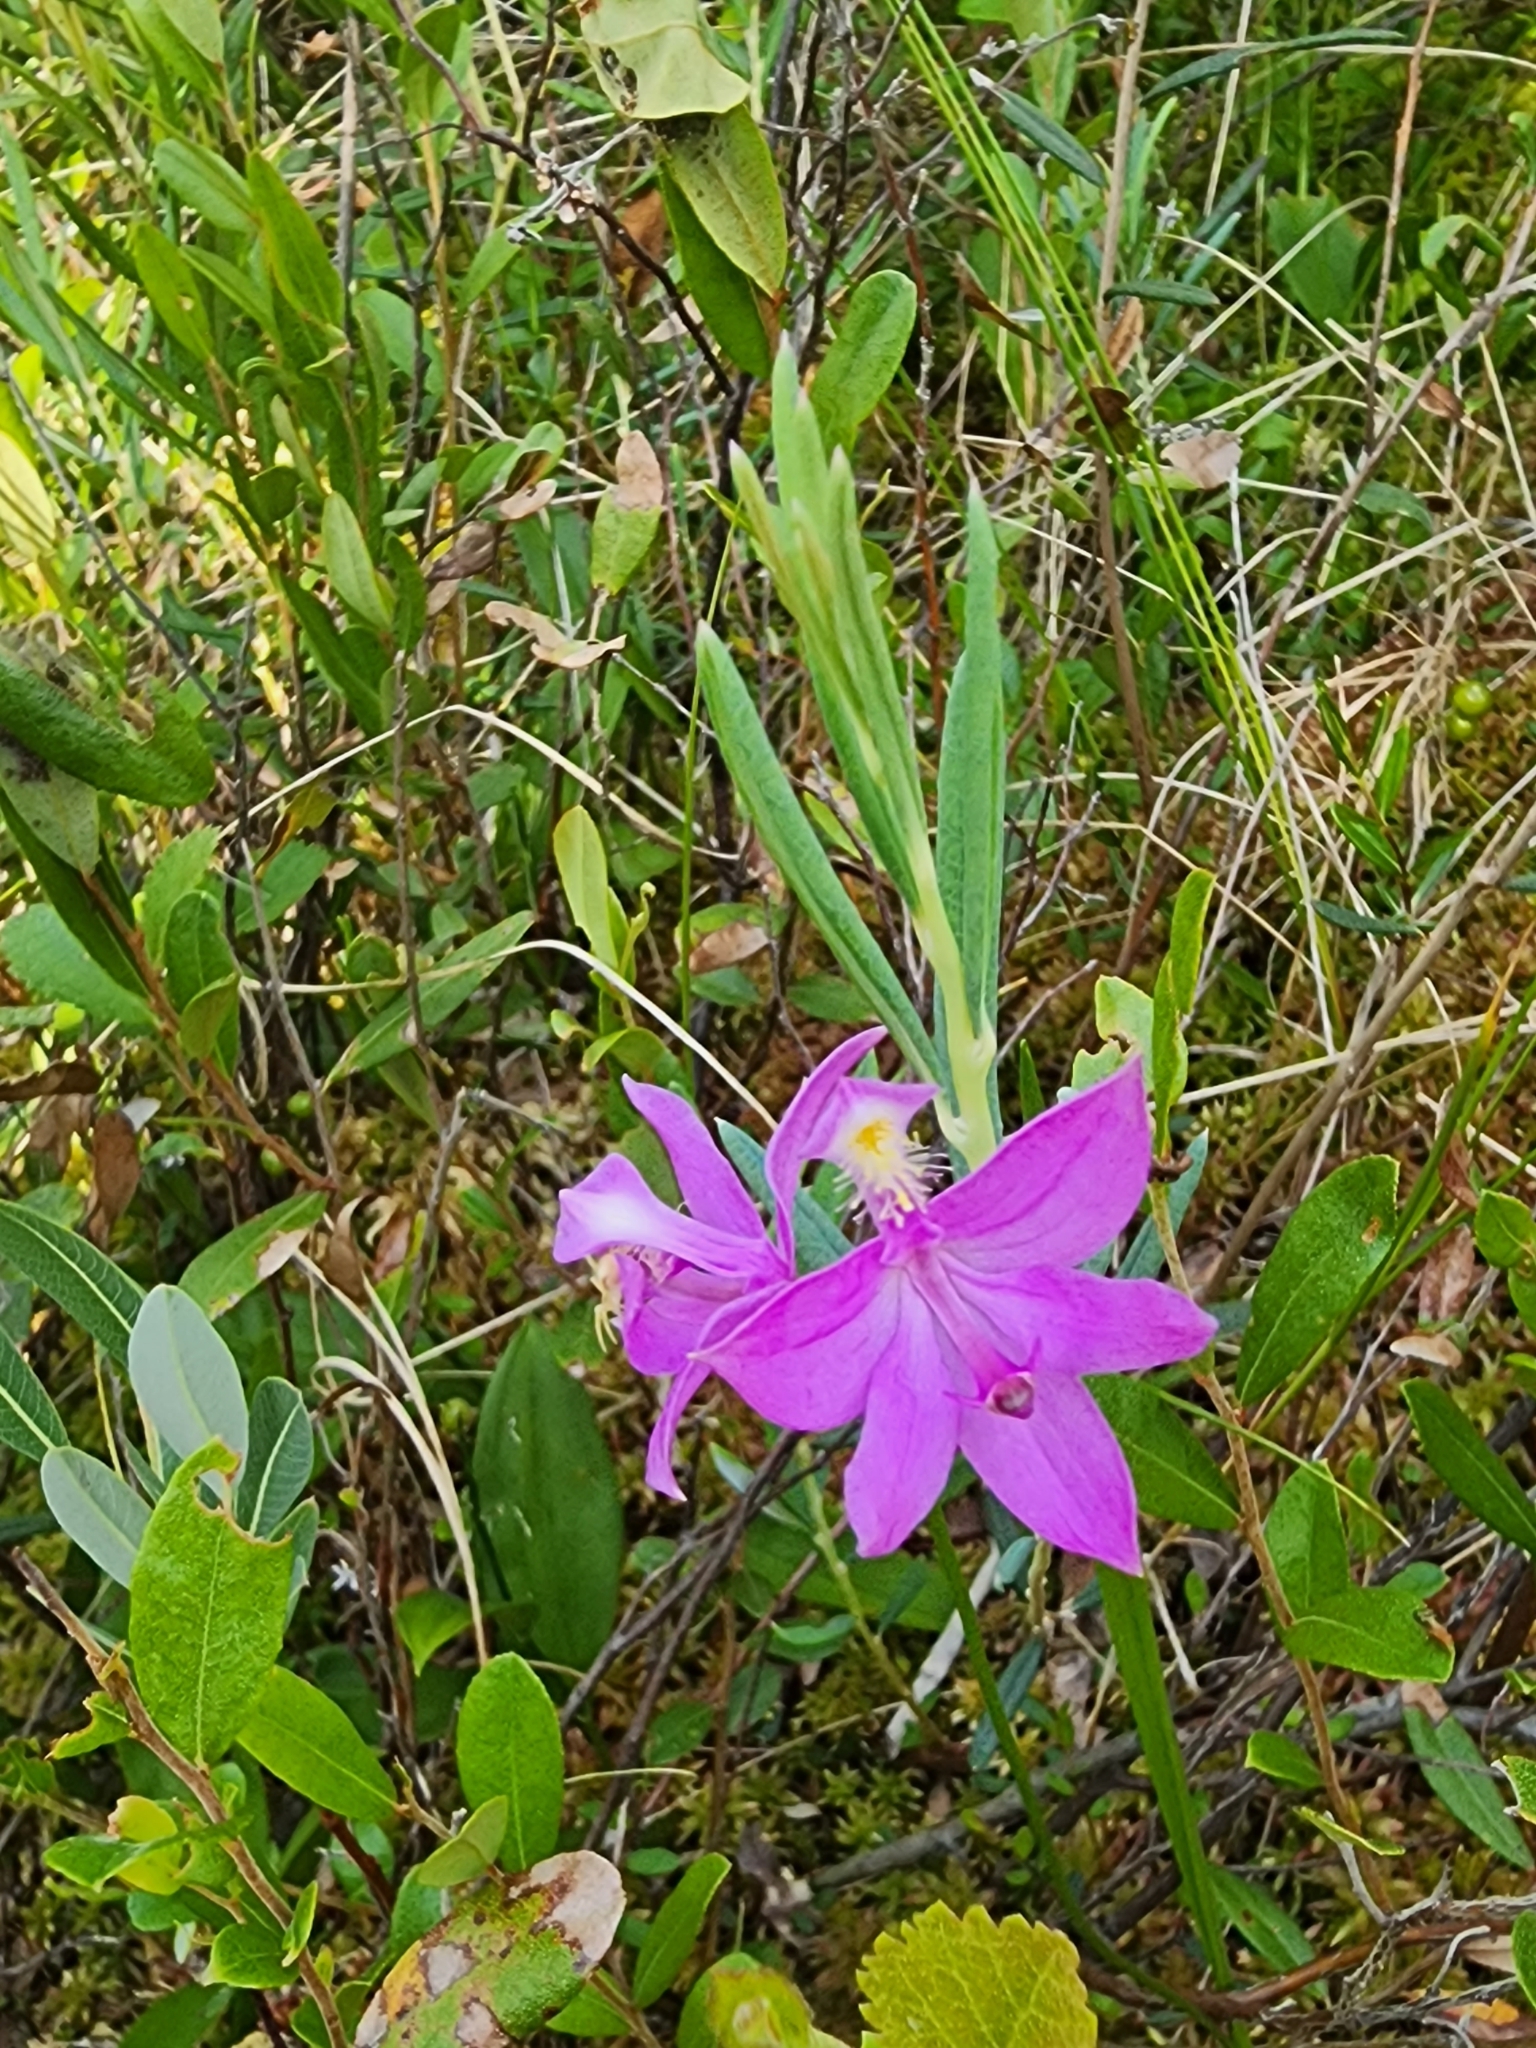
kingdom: Plantae
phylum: Tracheophyta
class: Liliopsida
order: Asparagales
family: Orchidaceae
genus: Calopogon
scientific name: Calopogon tuberosus
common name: Grass-pink
